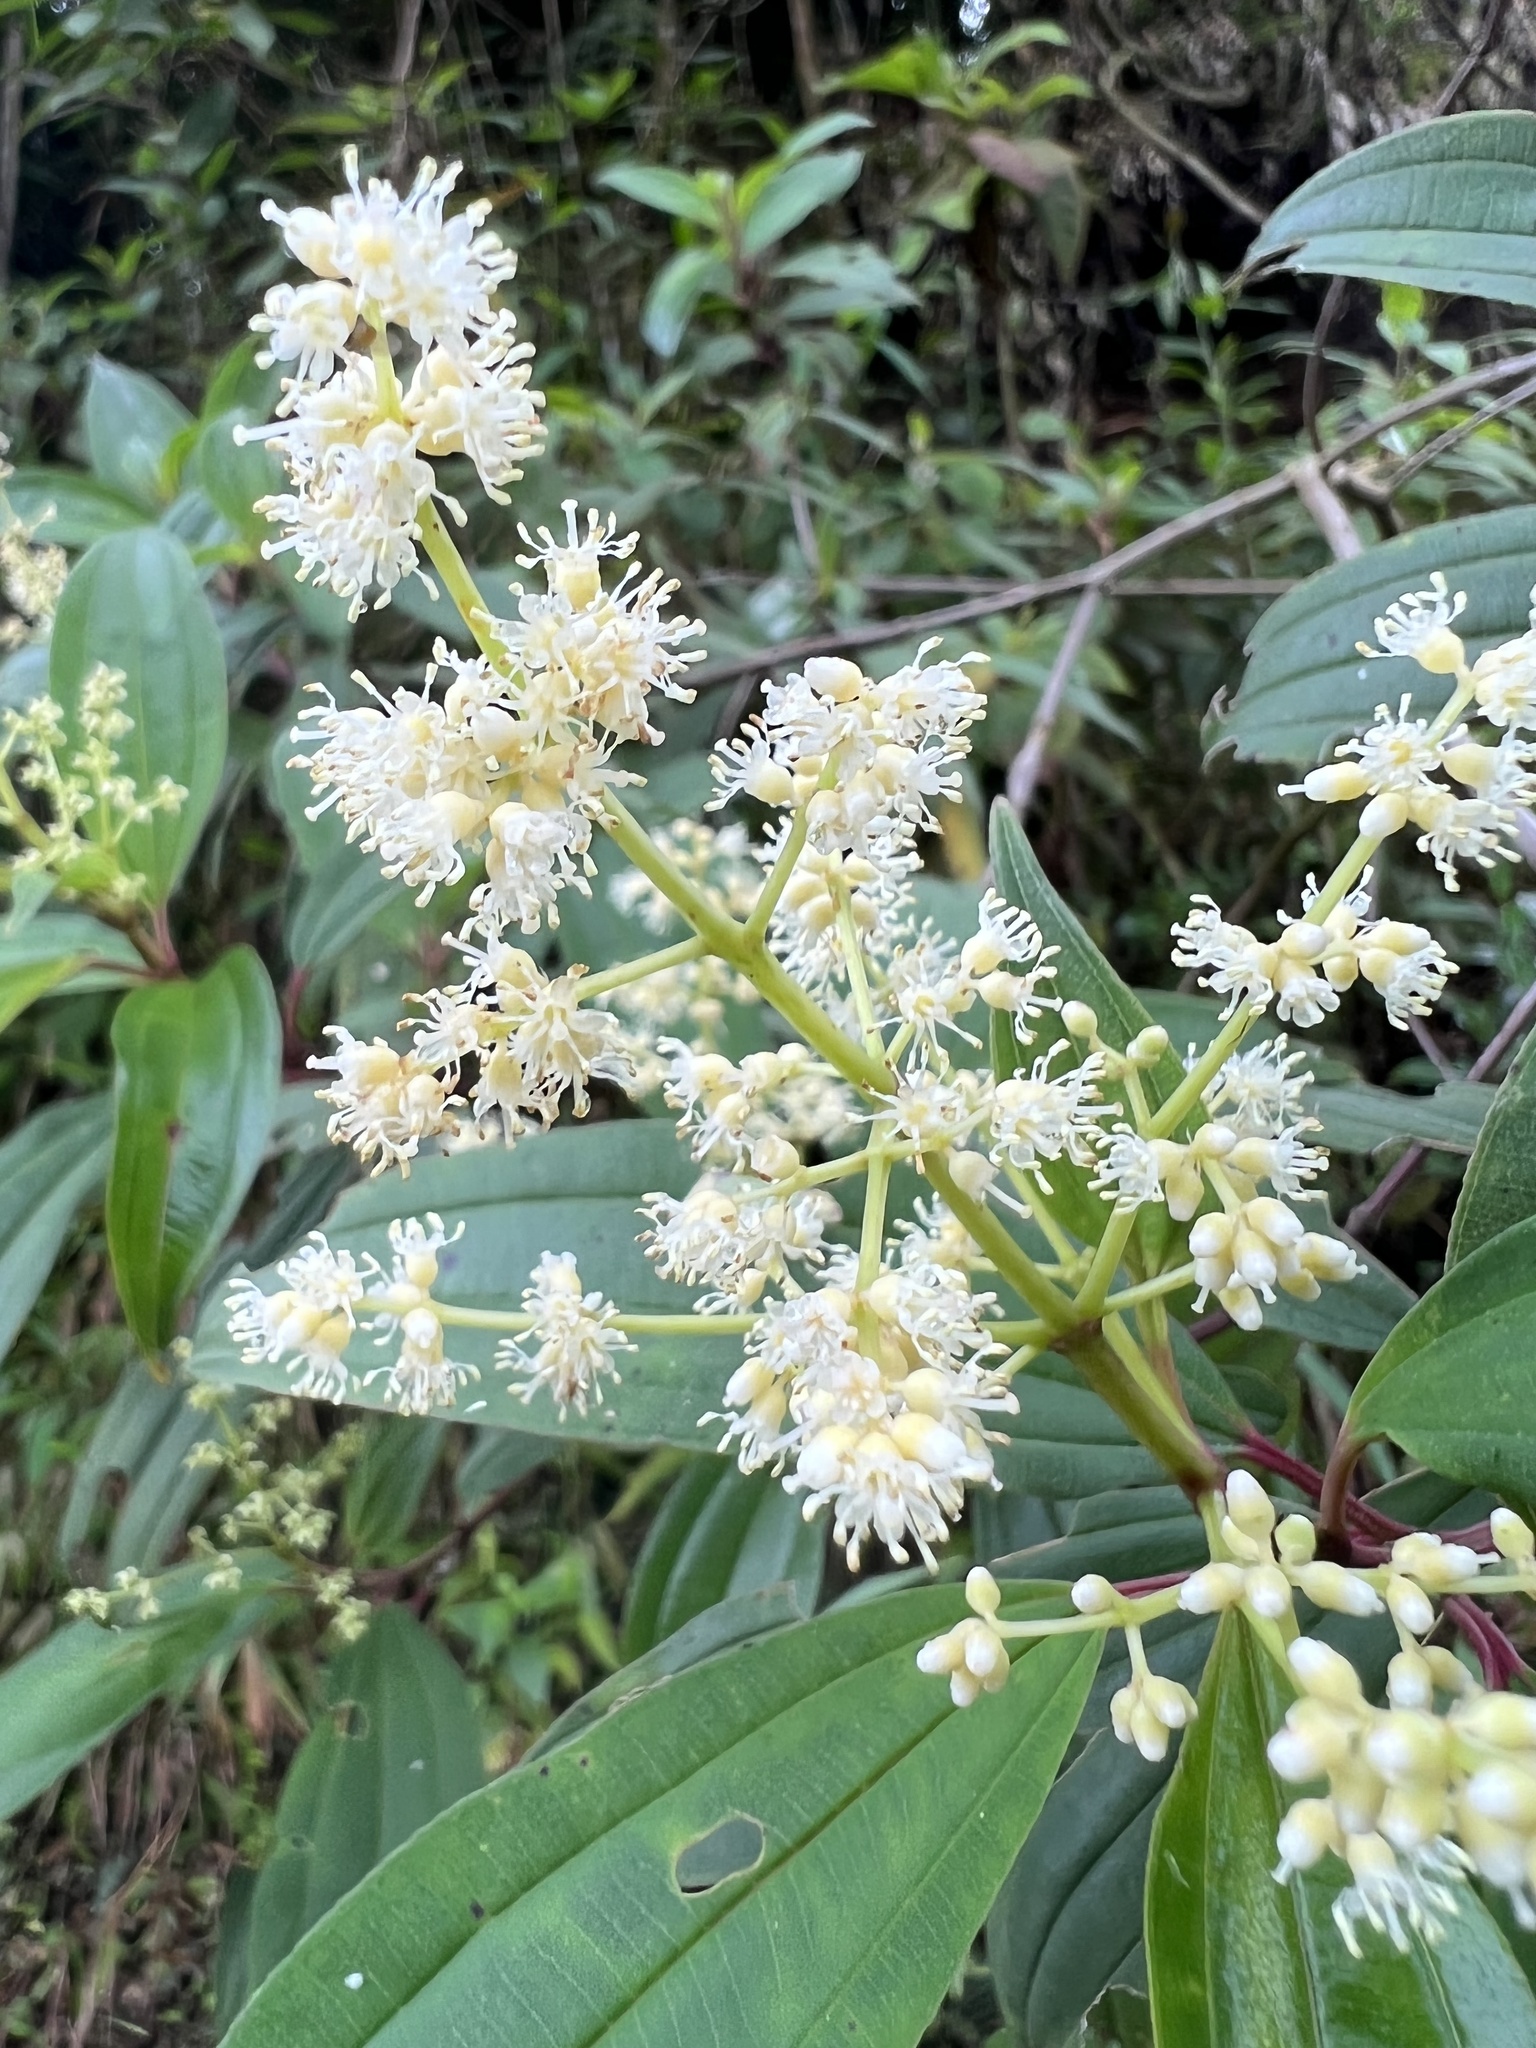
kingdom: Plantae
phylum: Tracheophyta
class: Magnoliopsida
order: Myrtales
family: Melastomataceae
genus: Miconia
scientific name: Miconia theizans
